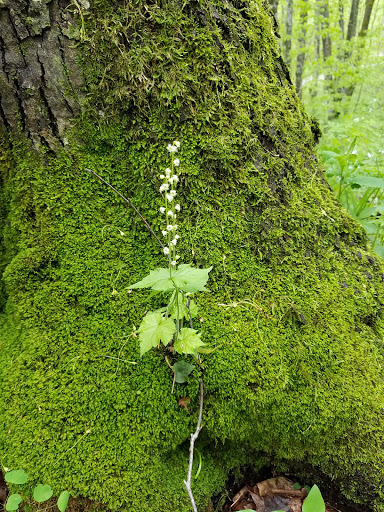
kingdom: Plantae
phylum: Tracheophyta
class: Magnoliopsida
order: Saxifragales
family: Saxifragaceae
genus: Mitella
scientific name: Mitella diphylla
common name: Coolwort
